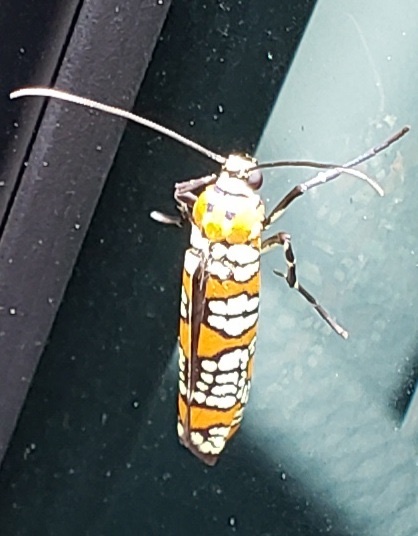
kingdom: Animalia
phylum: Arthropoda
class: Insecta
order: Lepidoptera
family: Attevidae
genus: Atteva
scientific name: Atteva punctella
